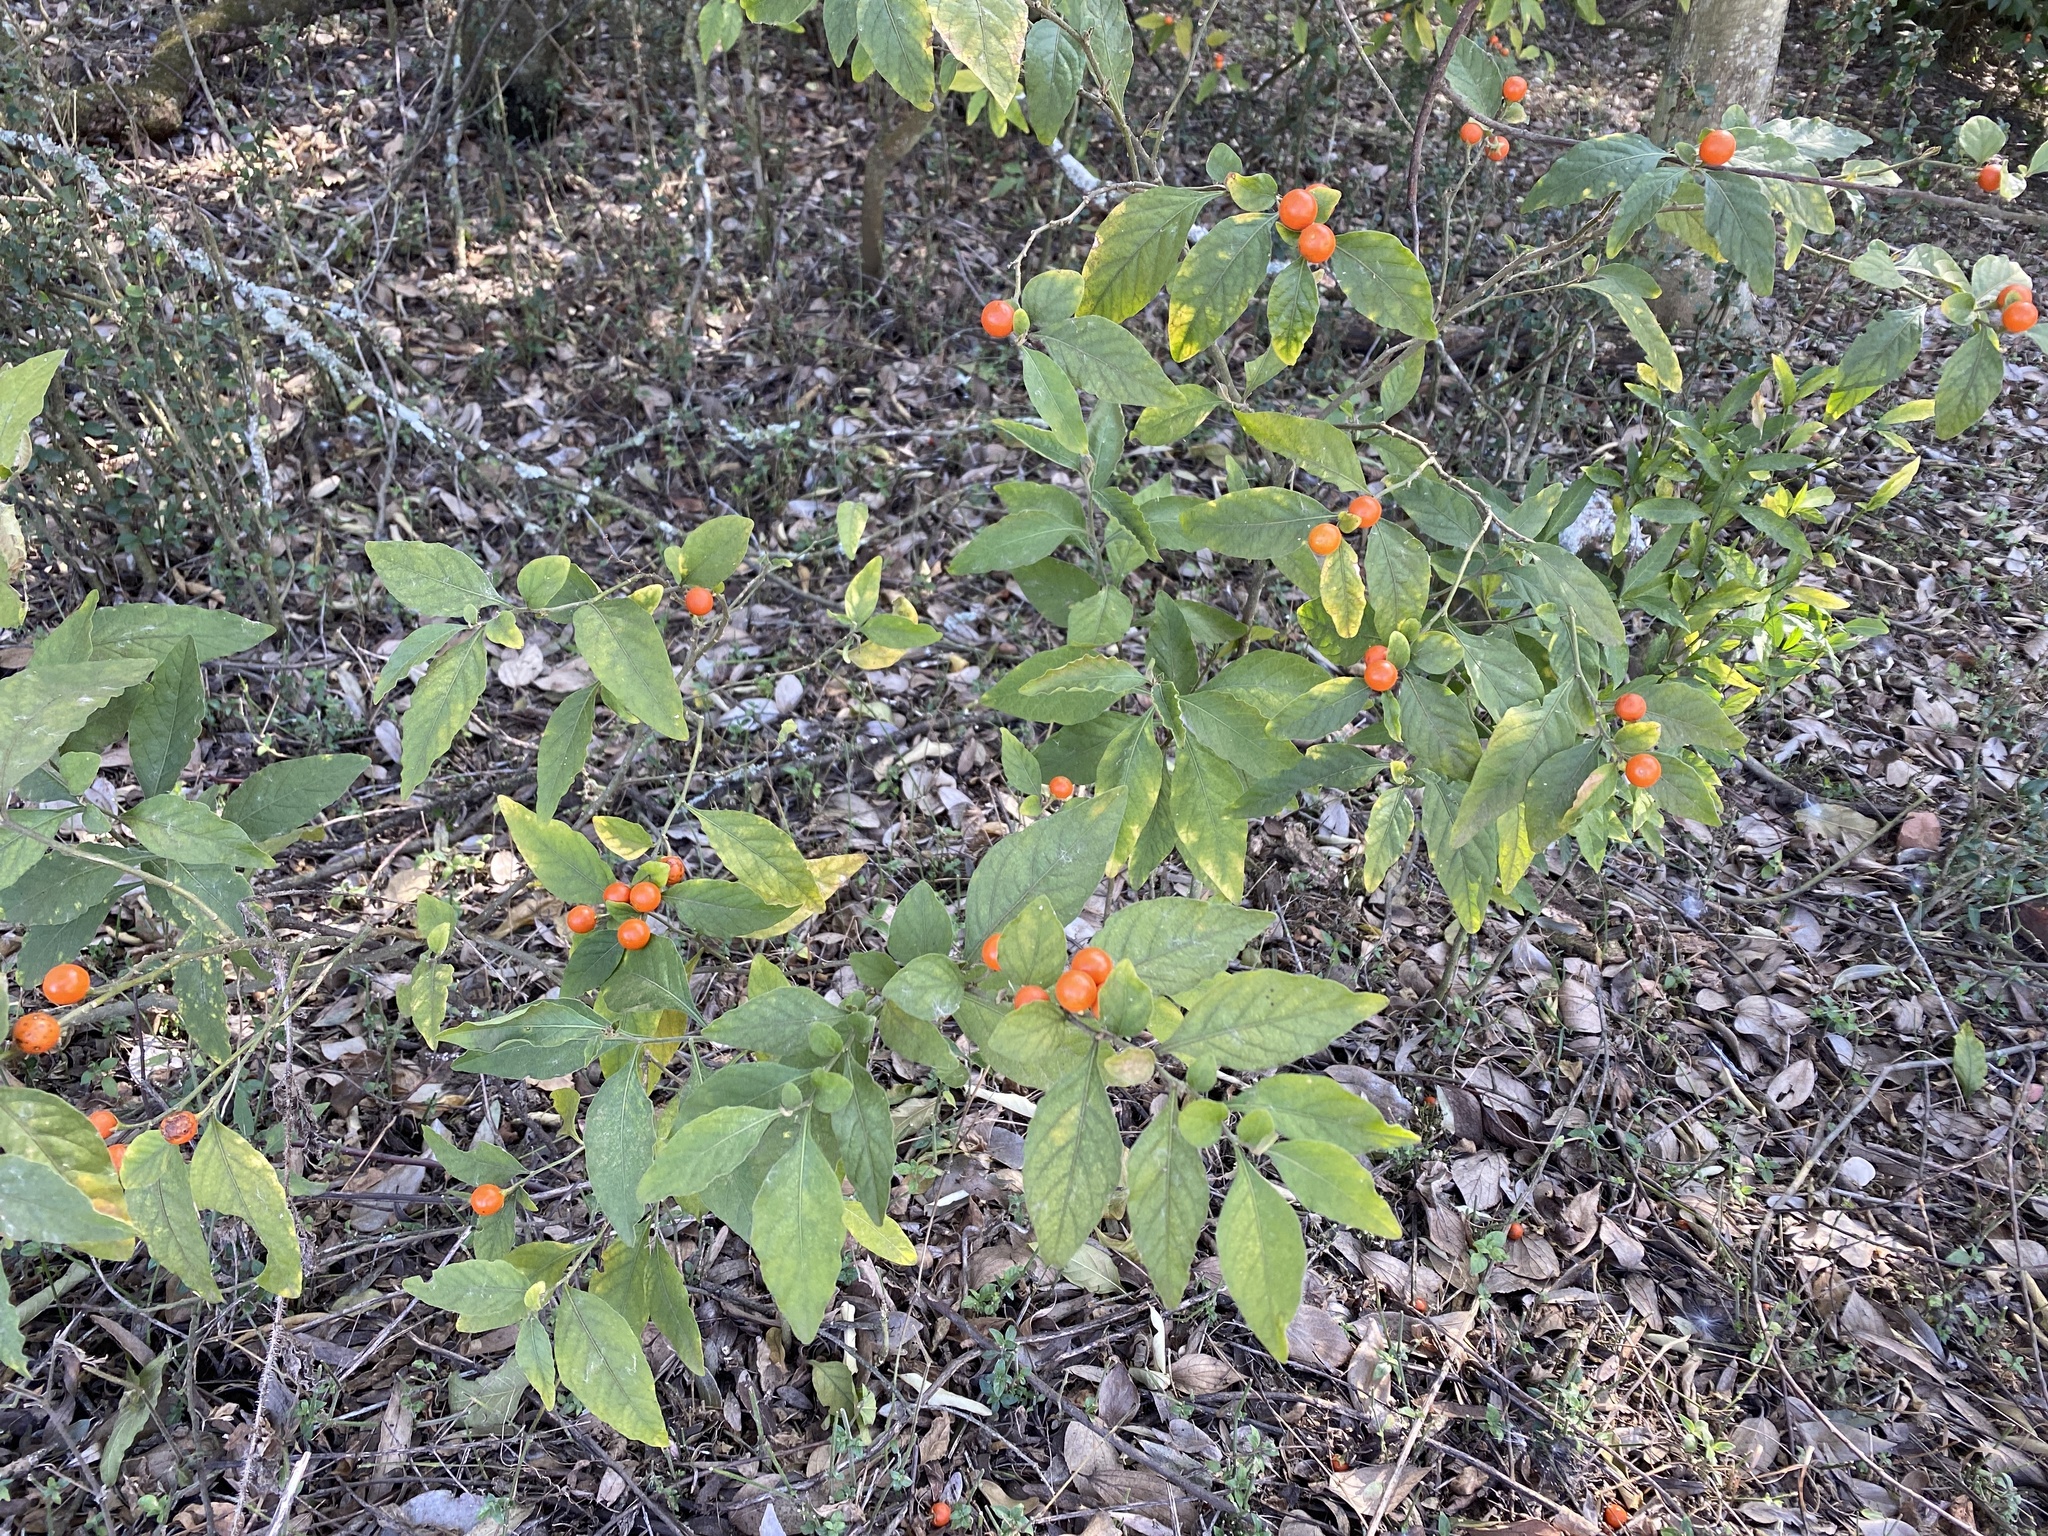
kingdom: Plantae
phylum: Tracheophyta
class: Magnoliopsida
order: Solanales
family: Solanaceae
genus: Solanum
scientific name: Solanum pseudocapsicum
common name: Jerusalem cherry
